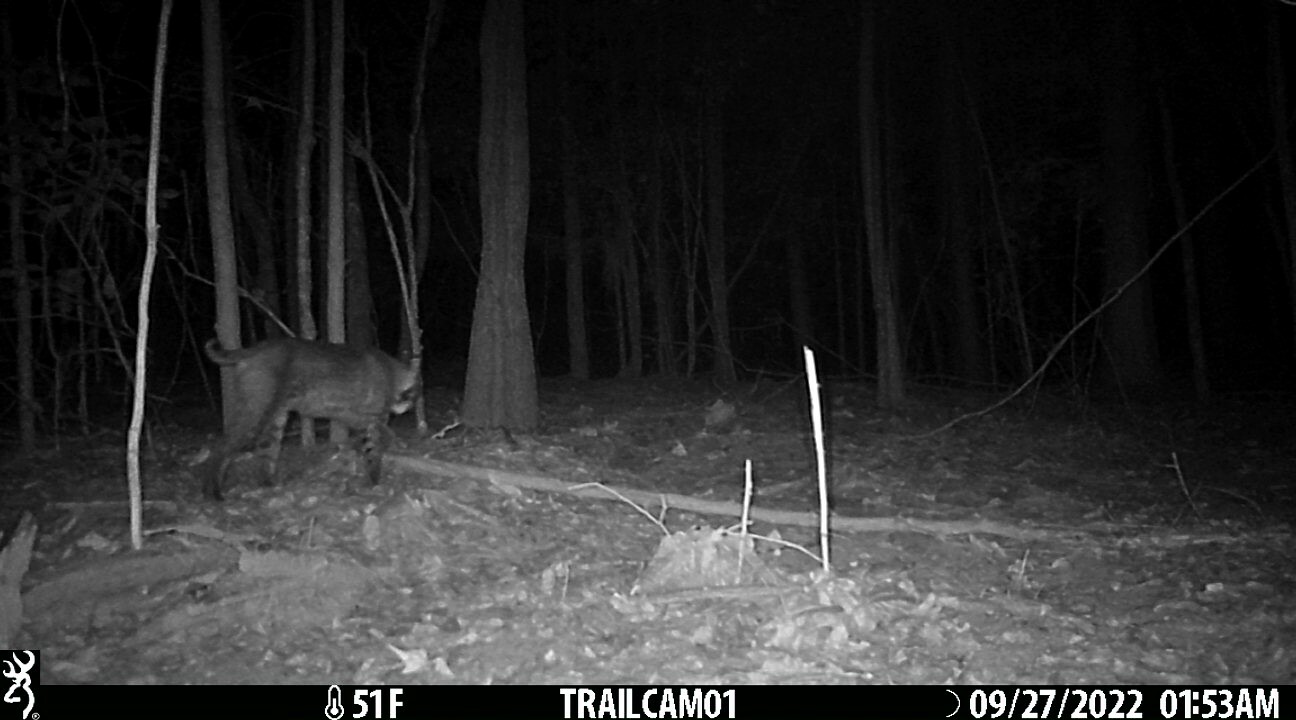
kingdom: Animalia
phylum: Chordata
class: Mammalia
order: Carnivora
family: Felidae
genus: Lynx
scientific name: Lynx rufus
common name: Bobcat
